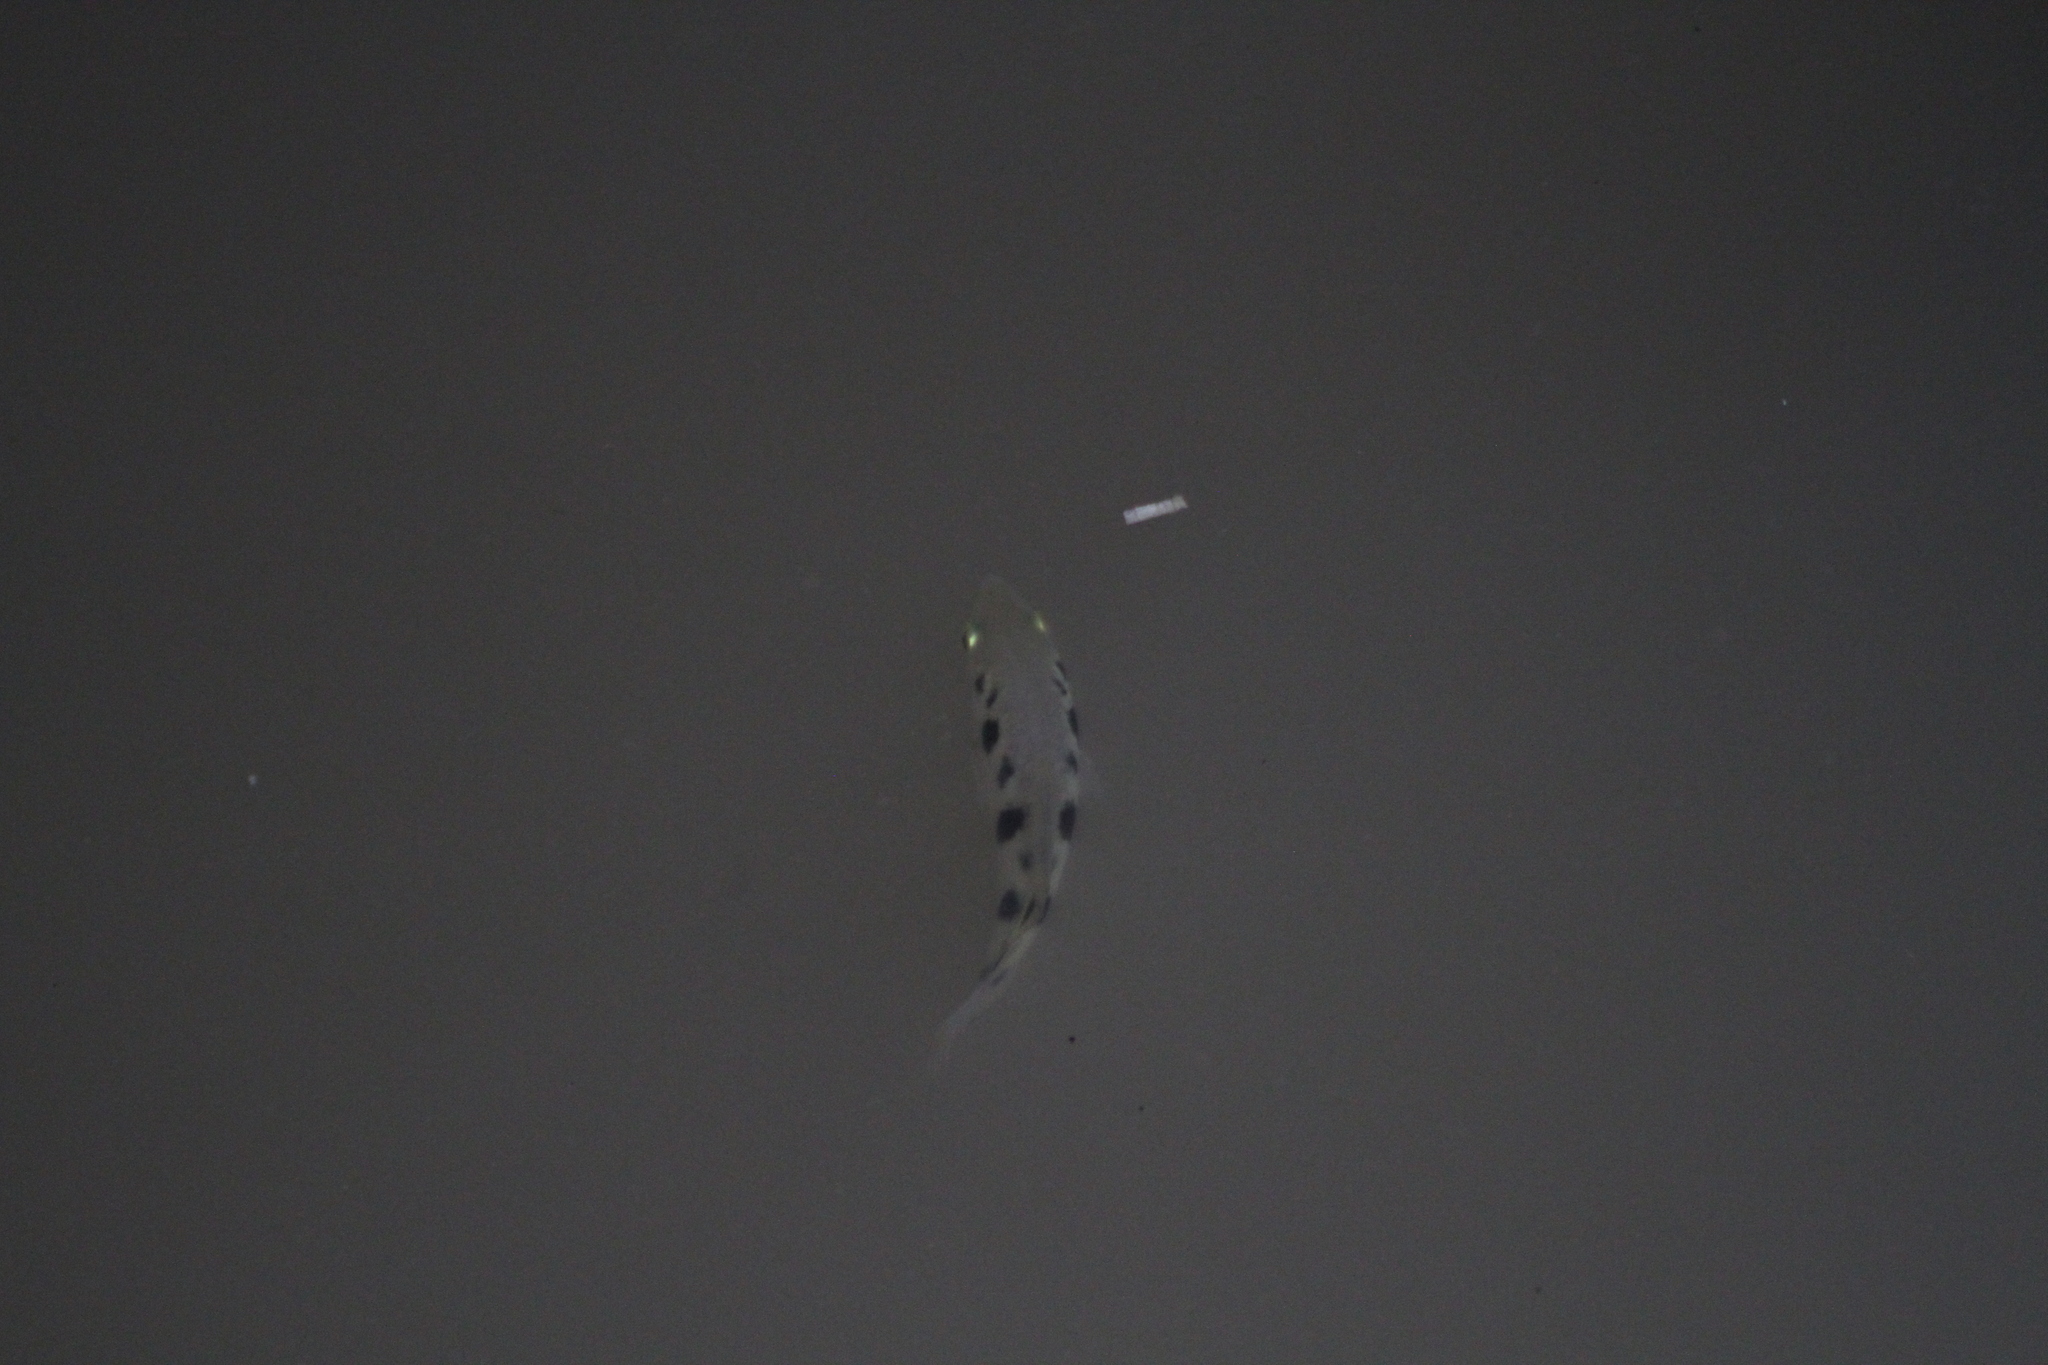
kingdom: Animalia
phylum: Chordata
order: Perciformes
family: Toxotidae
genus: Toxotes
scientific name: Toxotes chatareus
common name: Spotted archerfish
